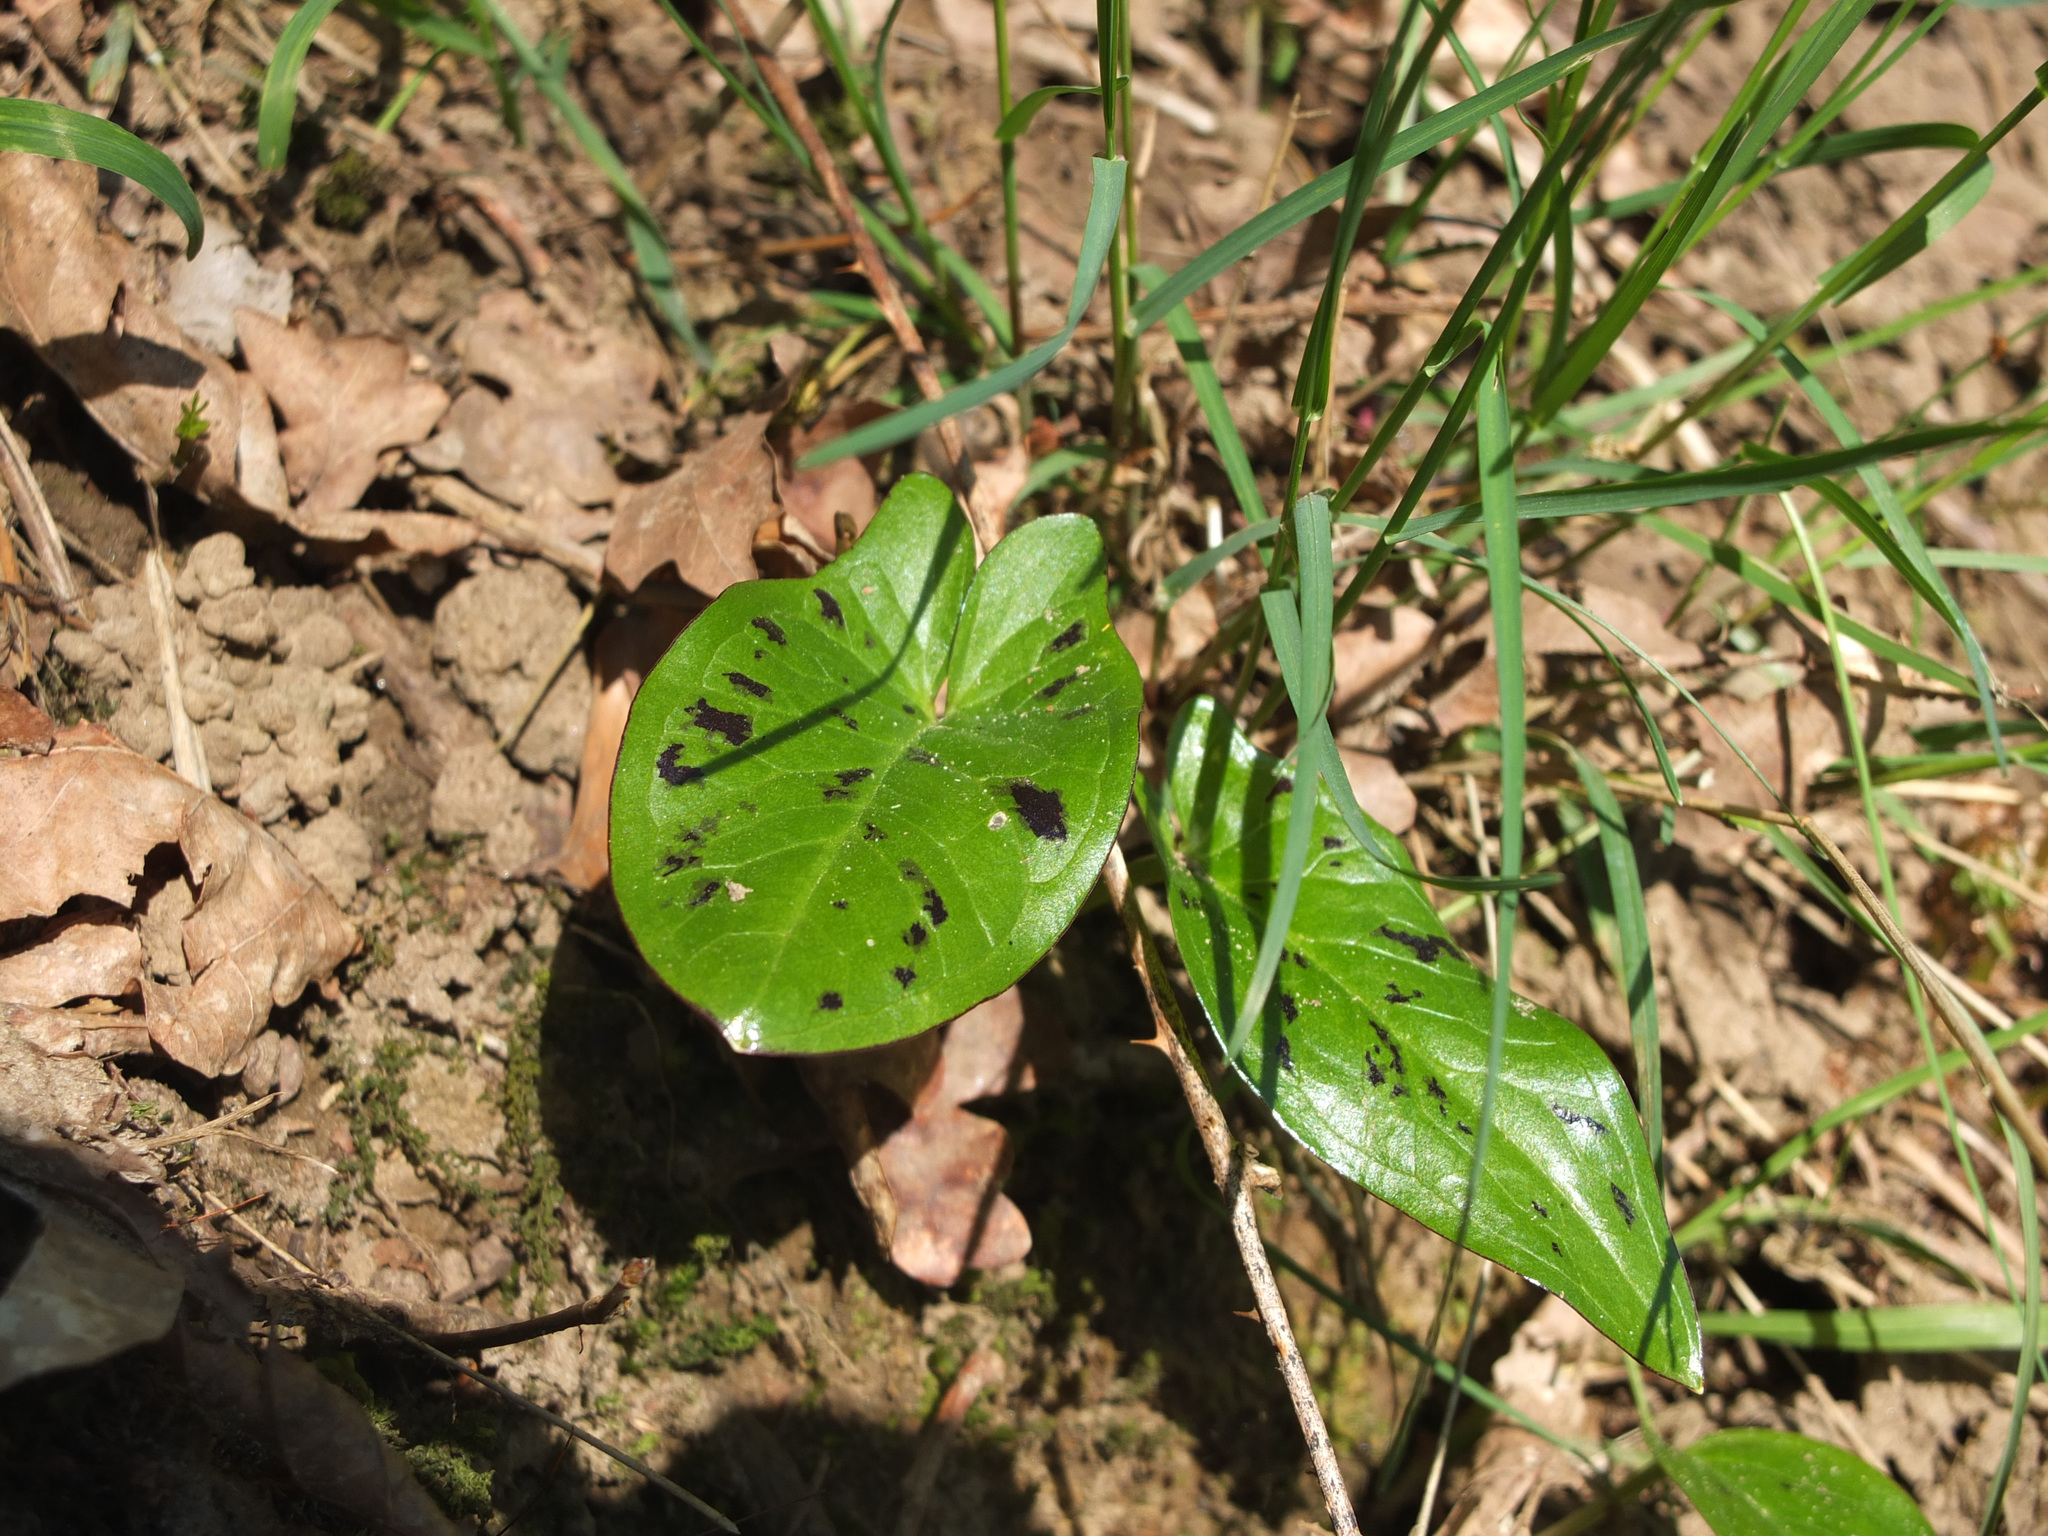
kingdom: Plantae
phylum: Tracheophyta
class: Liliopsida
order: Alismatales
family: Araceae
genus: Arum
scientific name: Arum maculatum
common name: Lords-and-ladies
